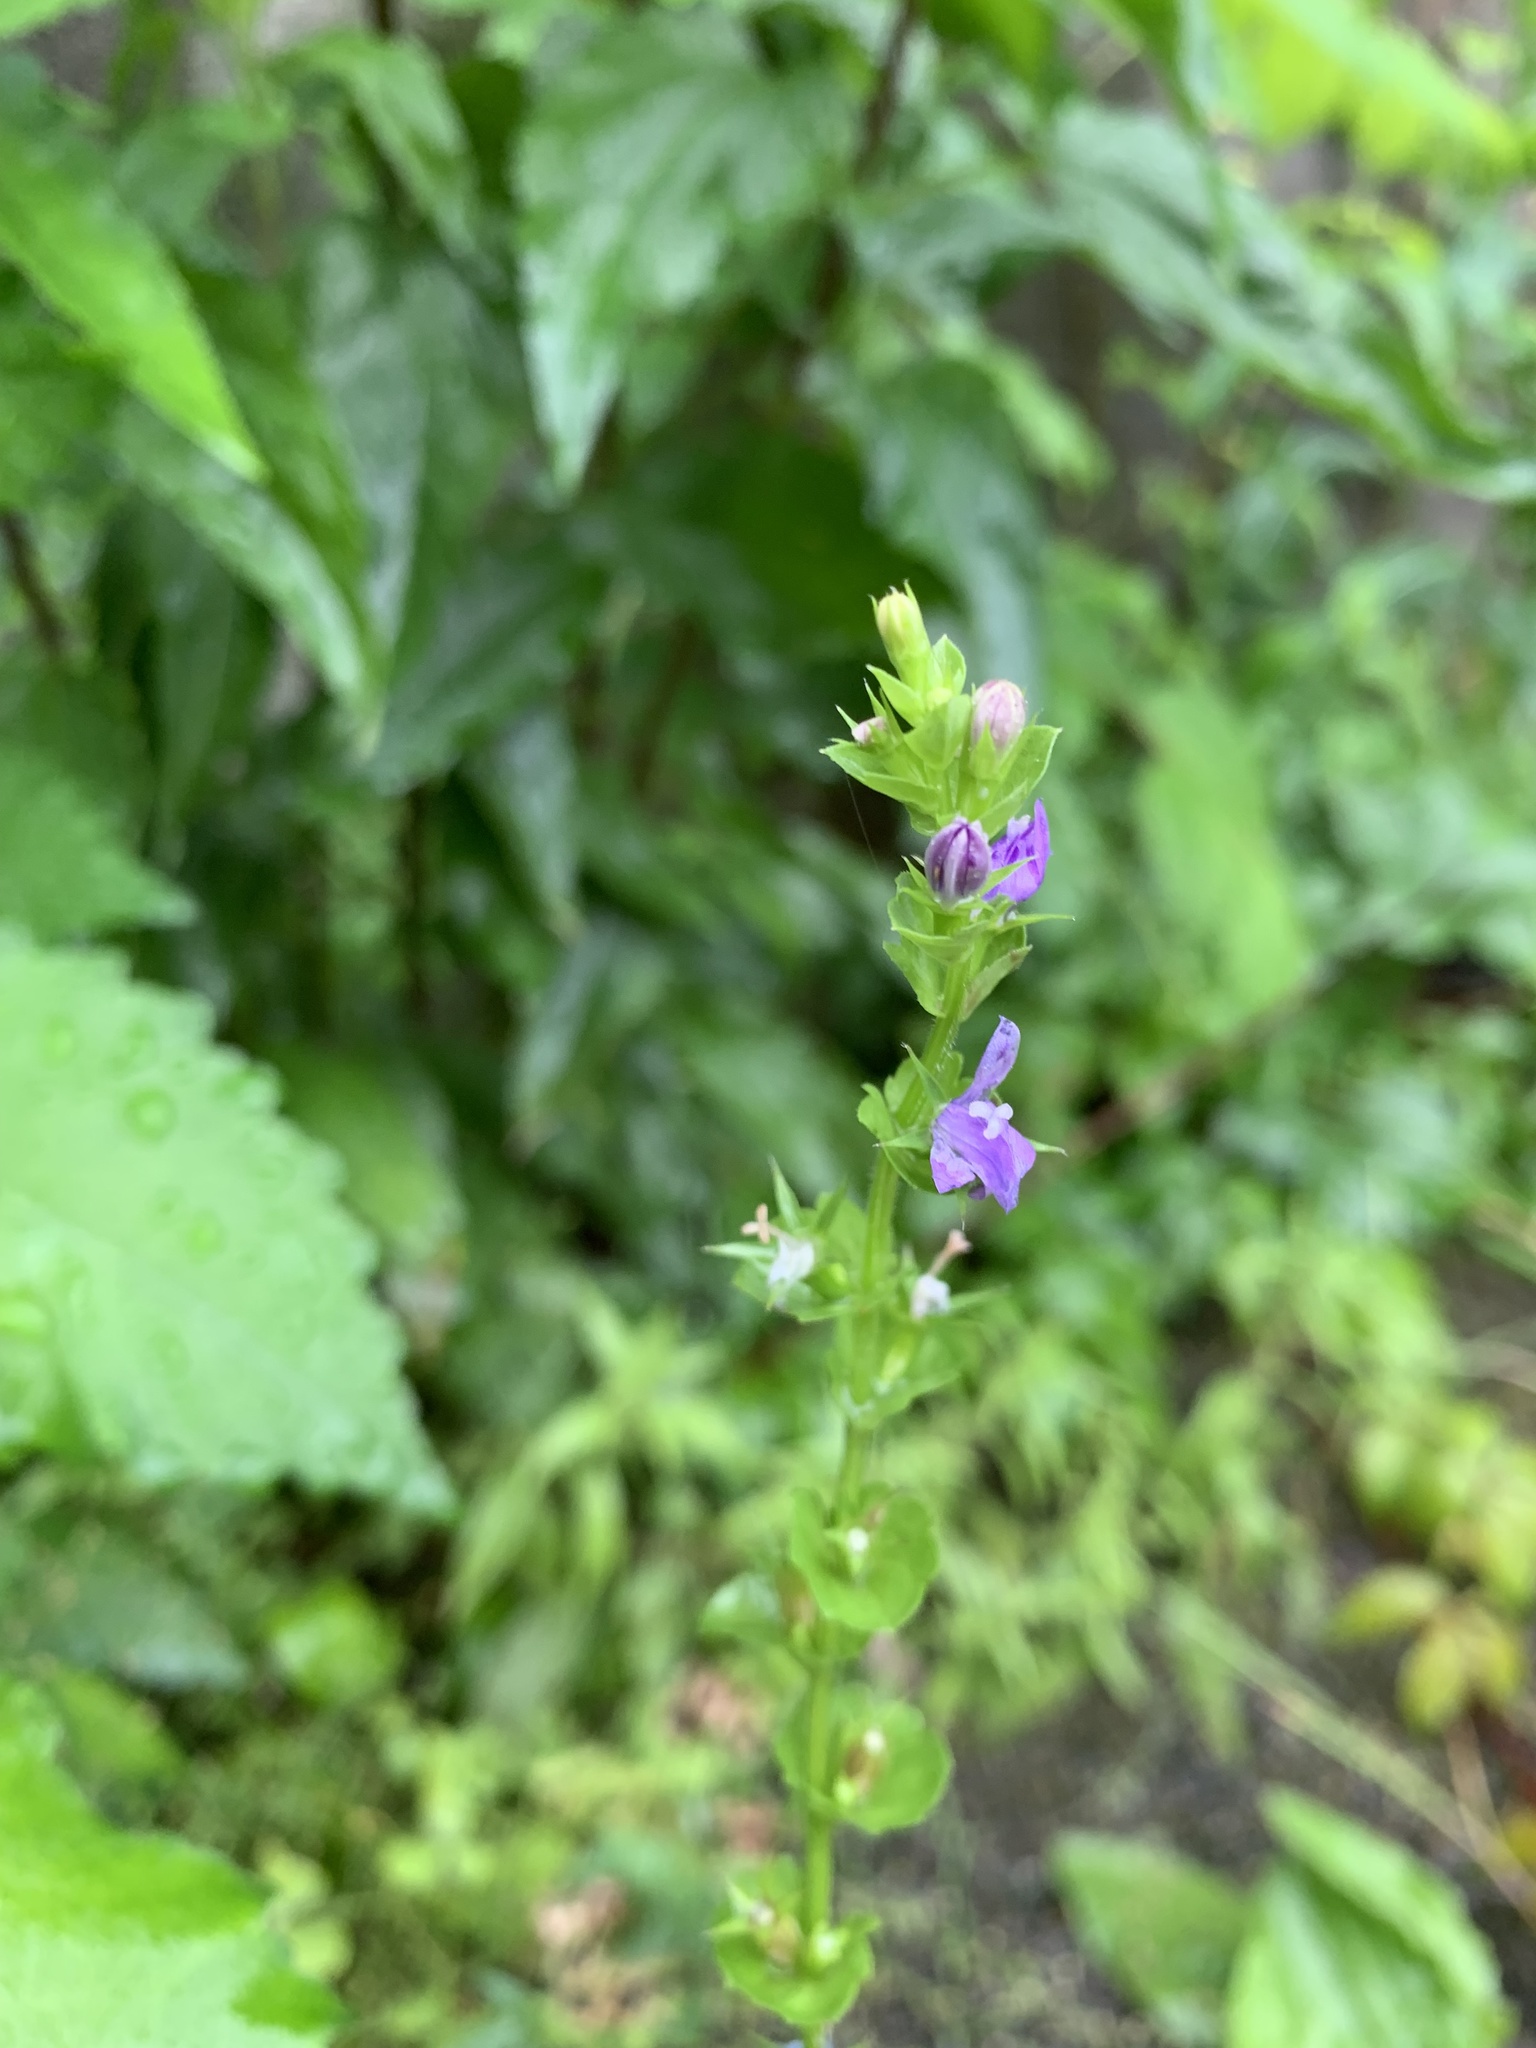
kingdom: Plantae
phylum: Tracheophyta
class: Magnoliopsida
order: Asterales
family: Campanulaceae
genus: Triodanis
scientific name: Triodanis perfoliata
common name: Clasping venus' looking-glass
